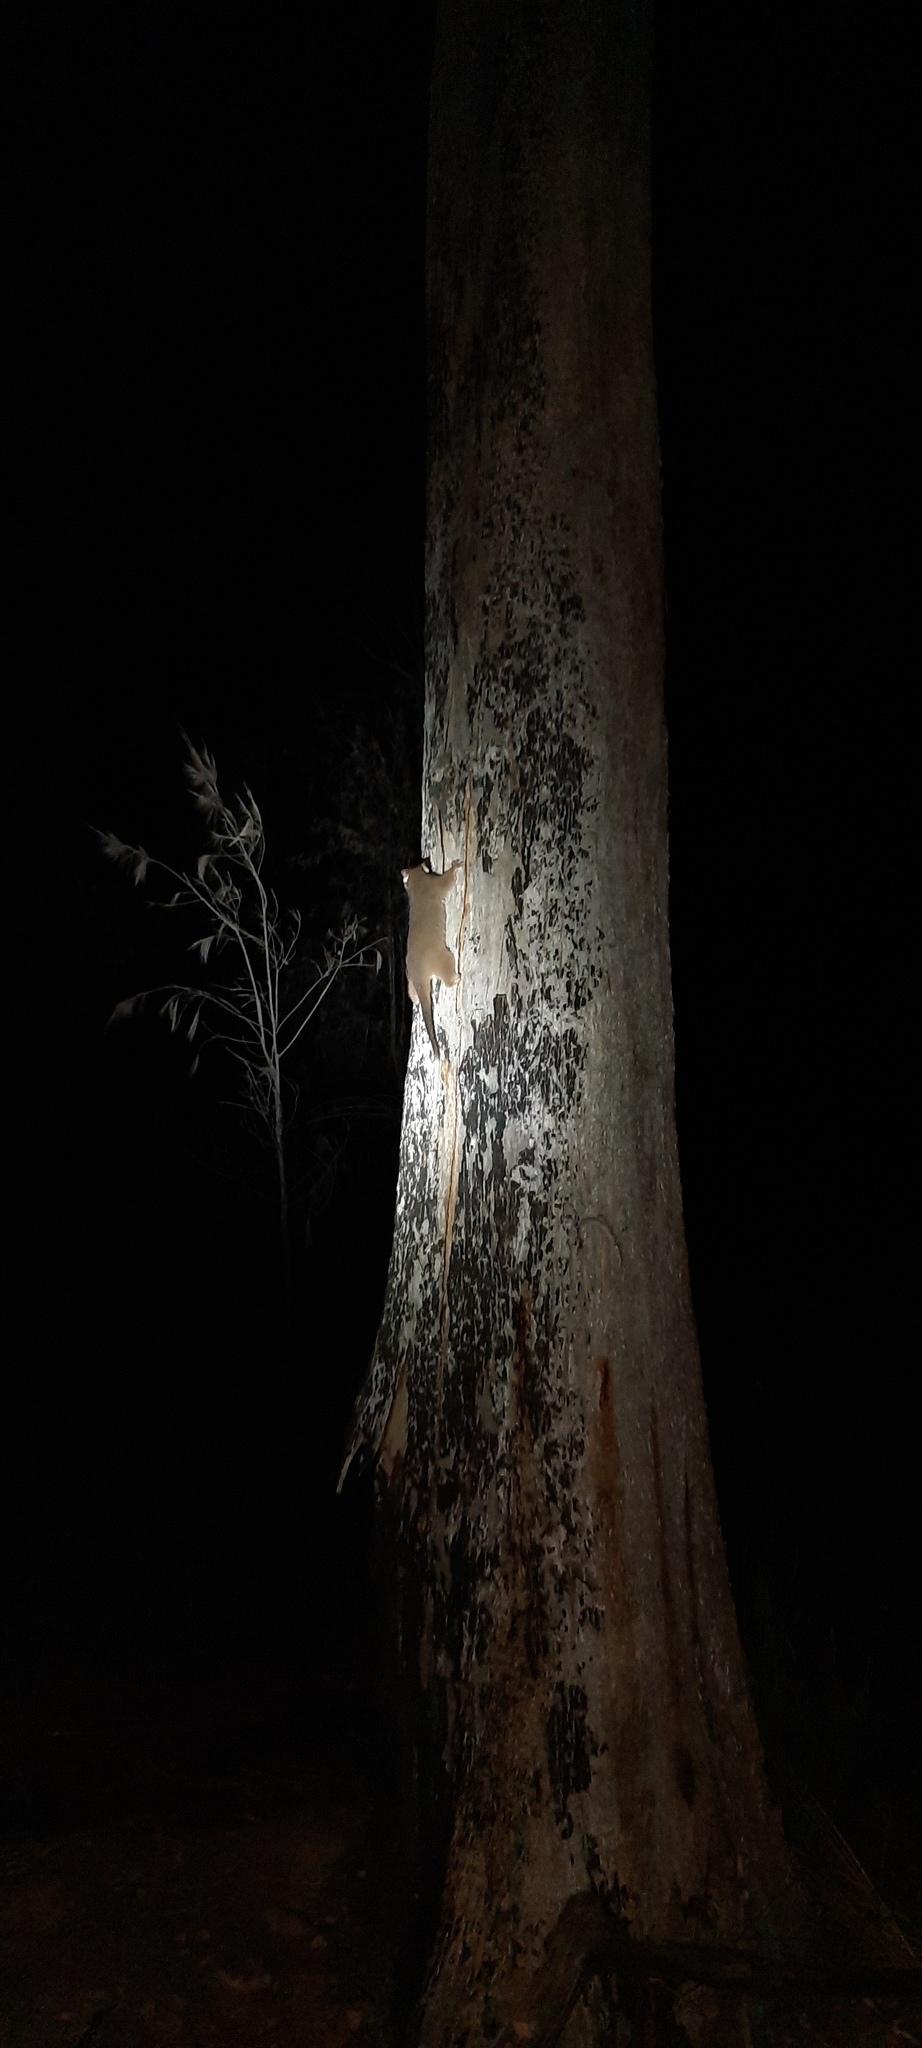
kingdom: Animalia
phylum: Chordata
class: Mammalia
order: Diprotodontia
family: Pseudocheiridae
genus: Pseudocheirus
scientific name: Pseudocheirus peregrinus
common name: Common ringtail possum
